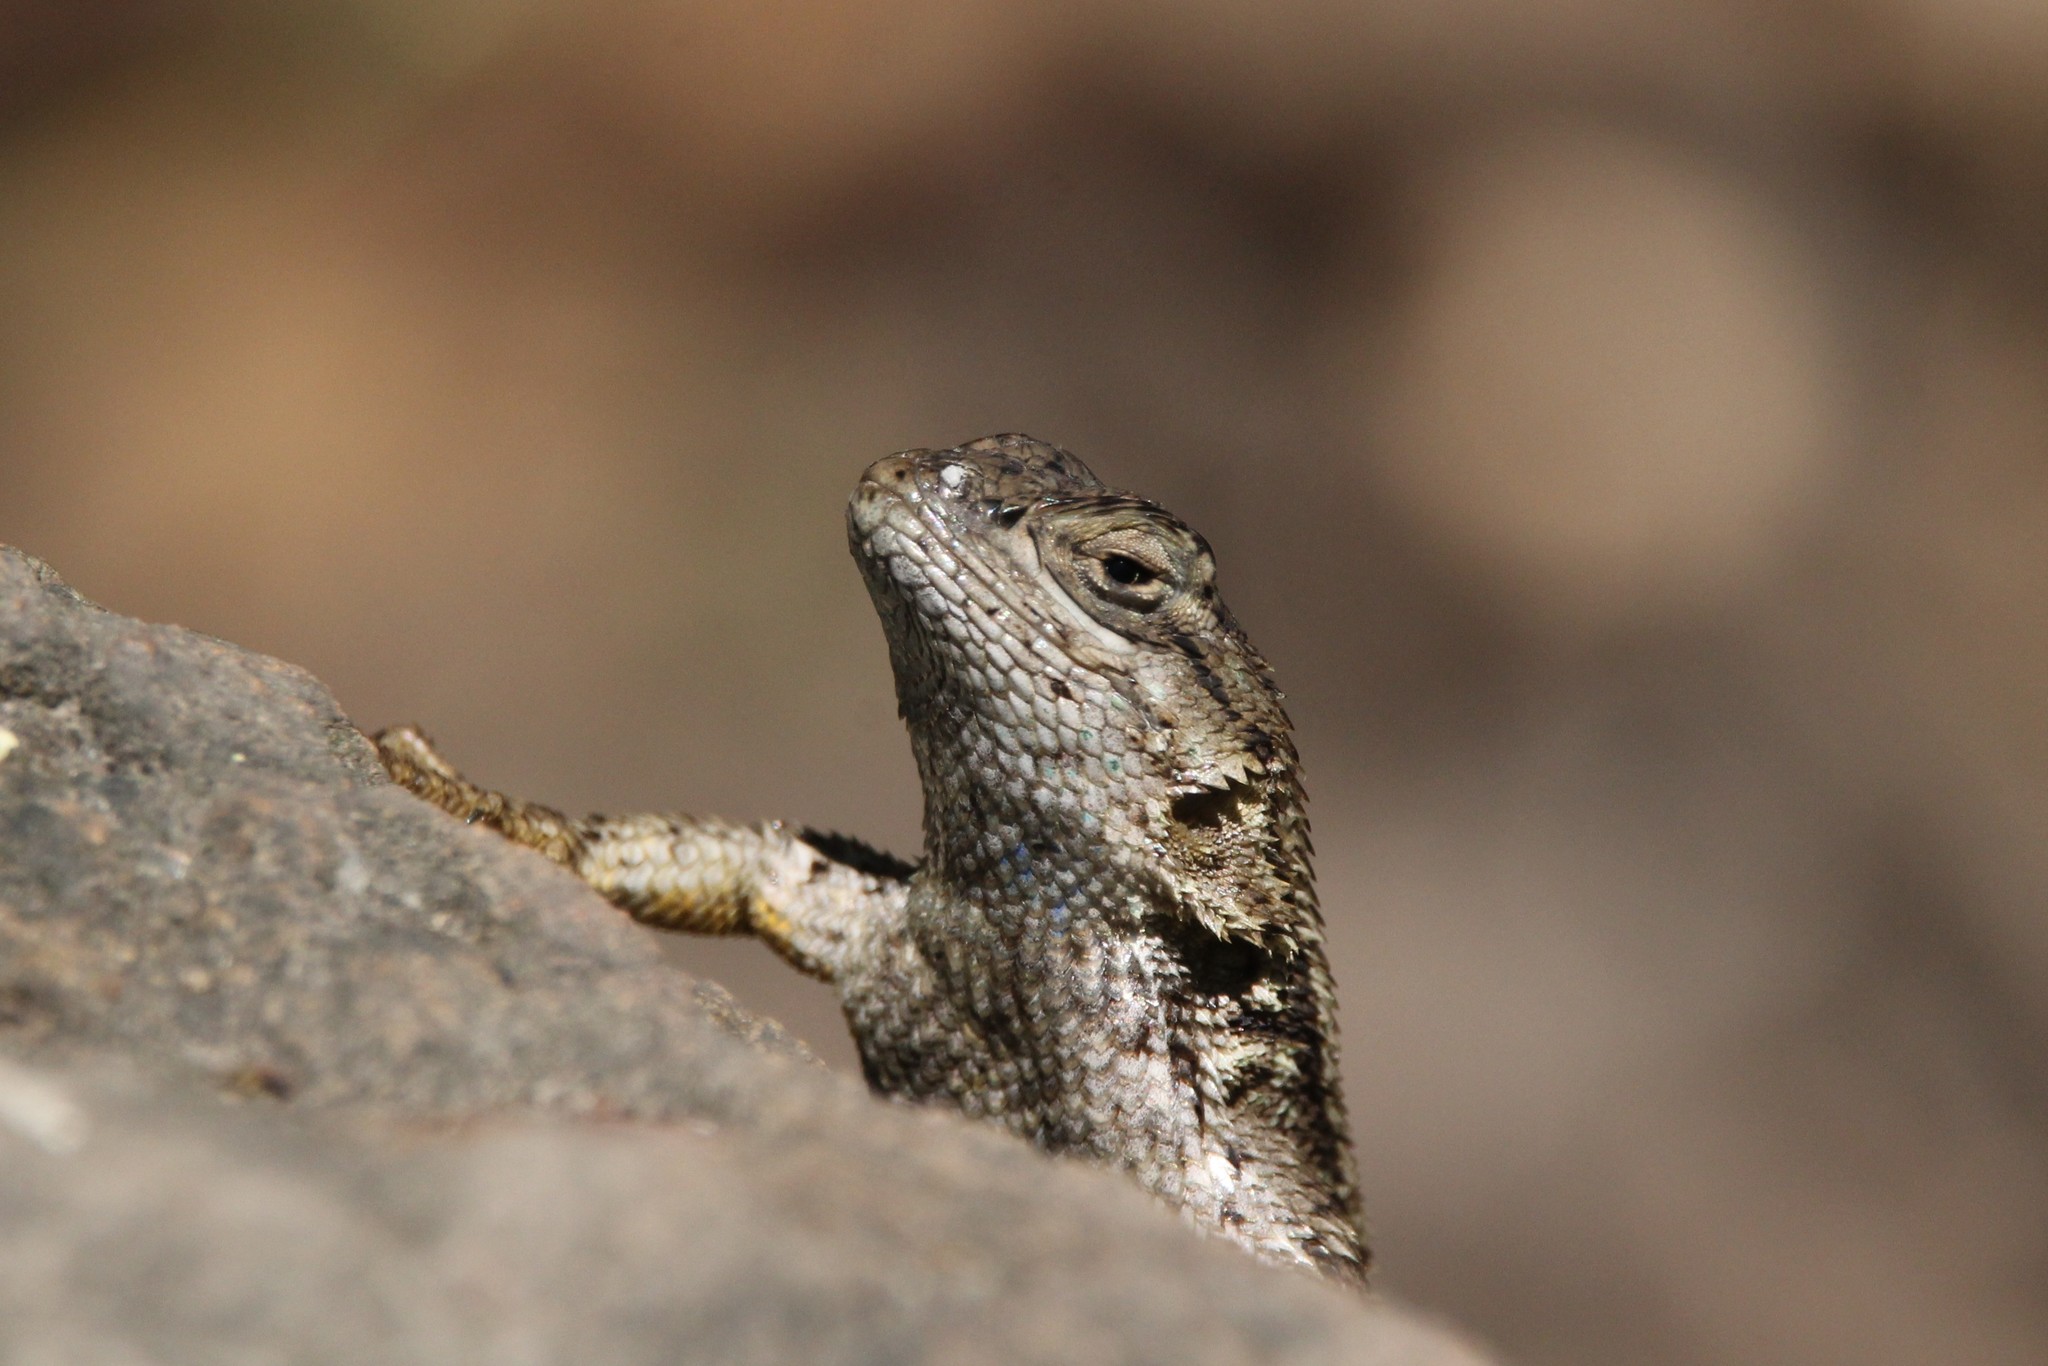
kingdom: Animalia
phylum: Chordata
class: Squamata
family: Phrynosomatidae
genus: Sceloporus
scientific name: Sceloporus occidentalis
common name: Western fence lizard
